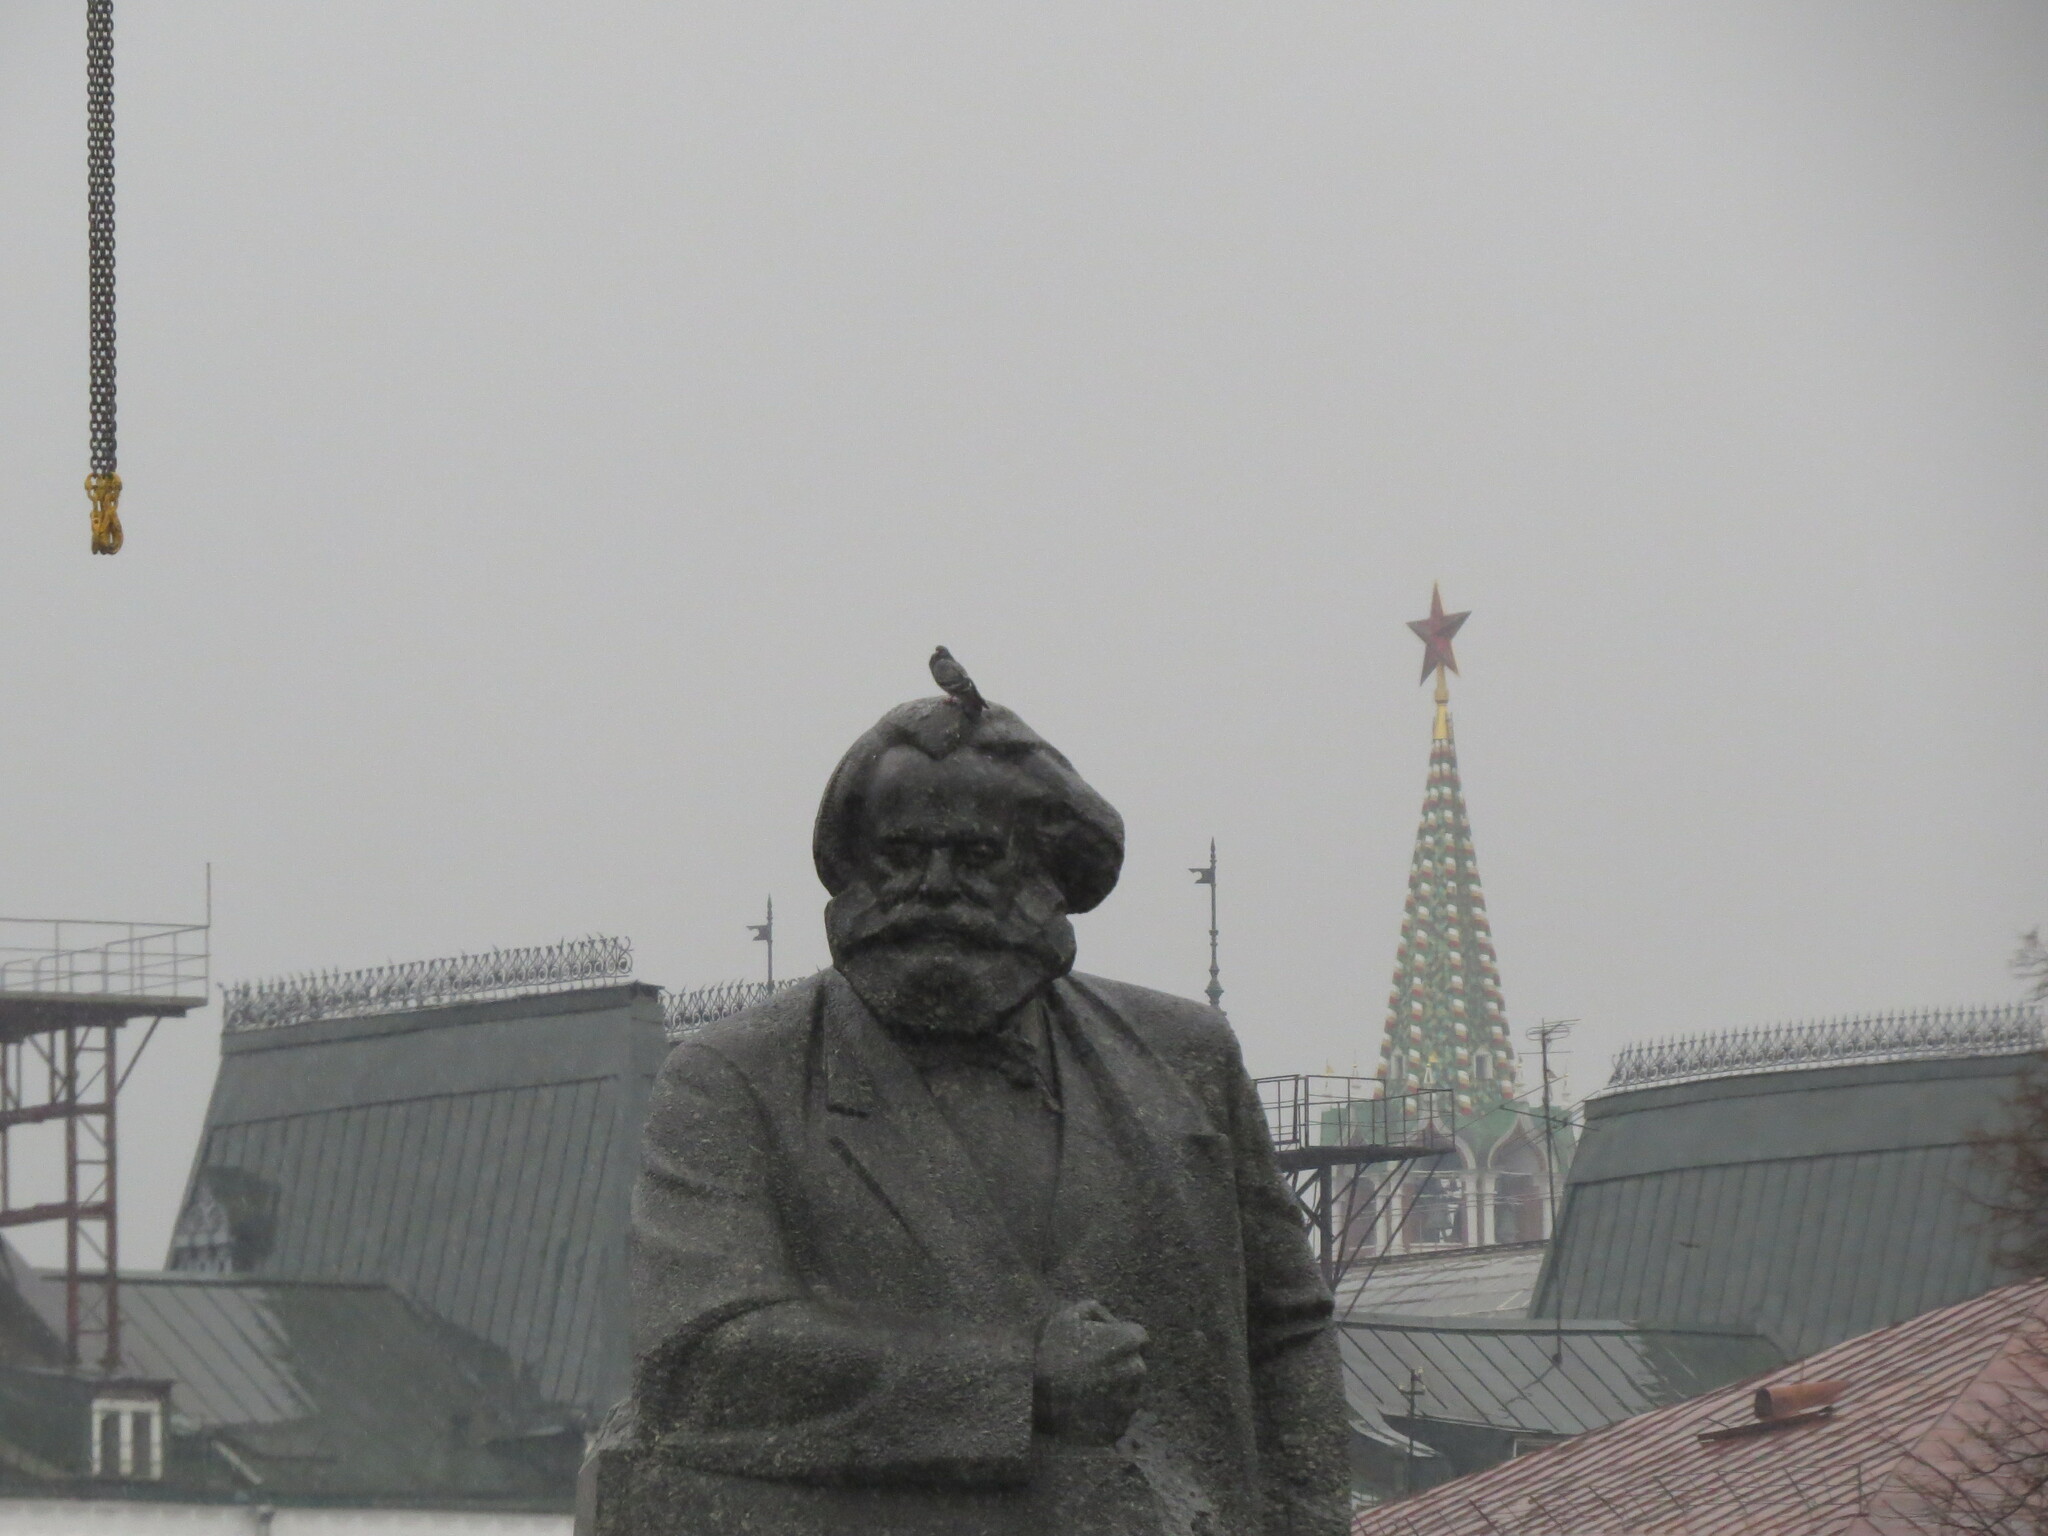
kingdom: Animalia
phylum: Chordata
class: Aves
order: Columbiformes
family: Columbidae
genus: Columba
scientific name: Columba livia
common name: Rock pigeon
